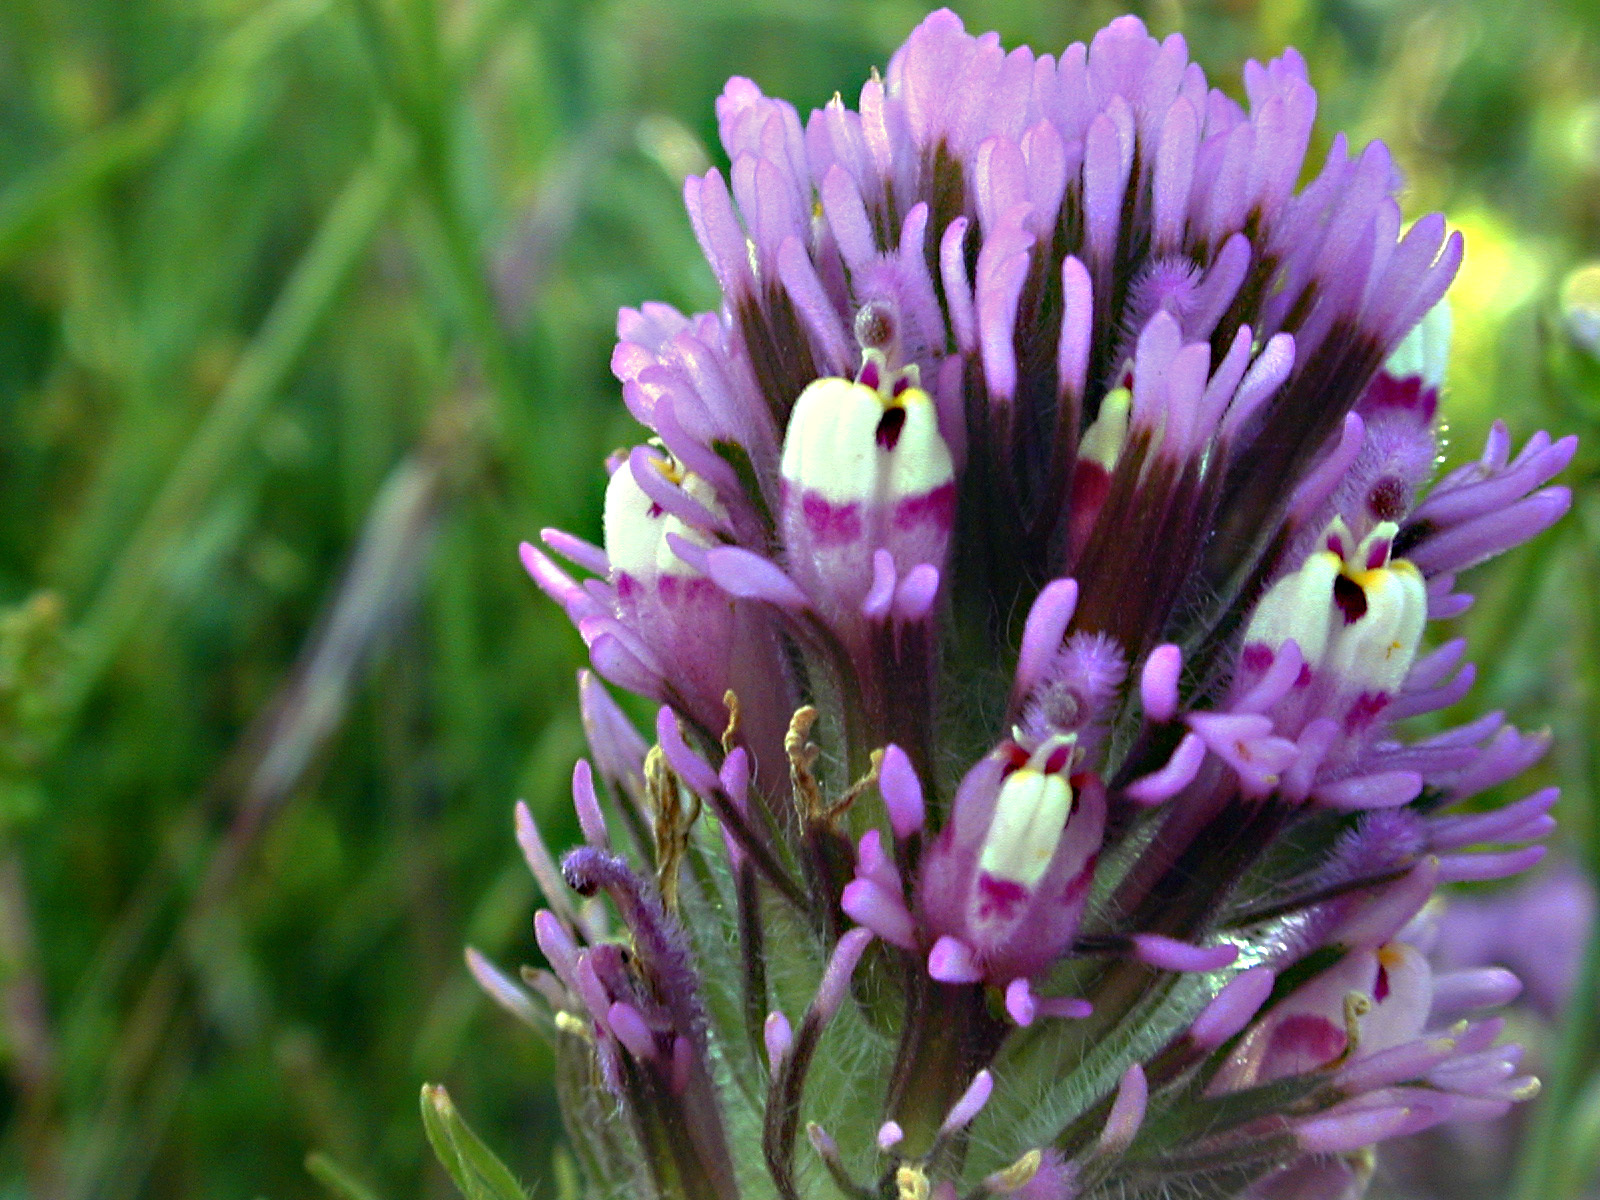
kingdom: Plantae
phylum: Tracheophyta
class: Magnoliopsida
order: Lamiales
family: Orobanchaceae
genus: Castilleja
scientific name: Castilleja exserta
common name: Purple owl-clover
